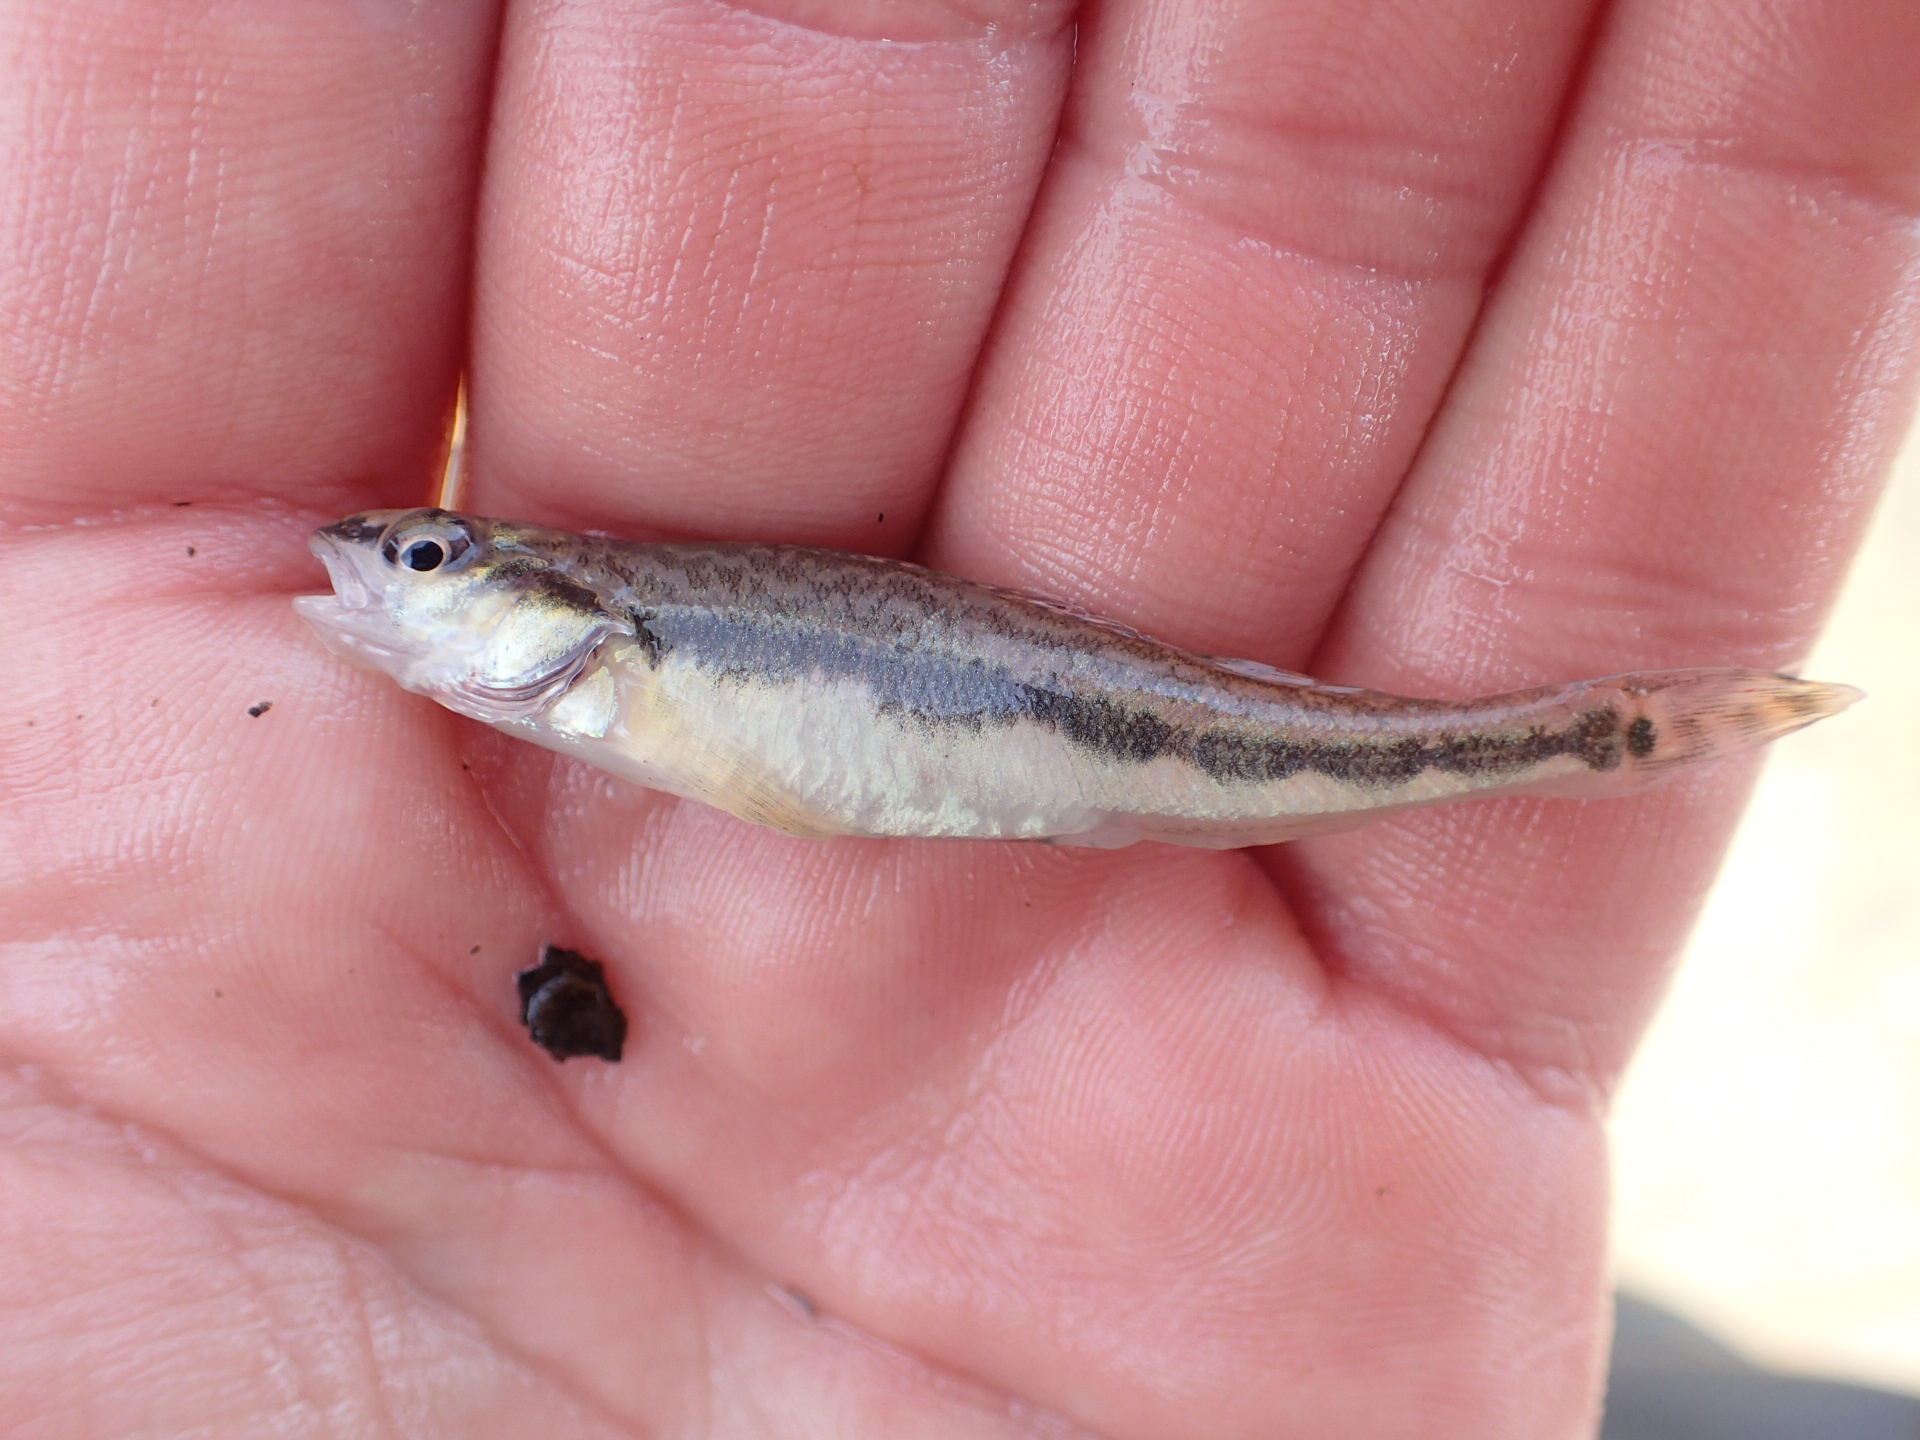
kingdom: Animalia
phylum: Chordata
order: Perciformes
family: Percidae
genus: Percina
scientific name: Percina maculata
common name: Blackside darter
